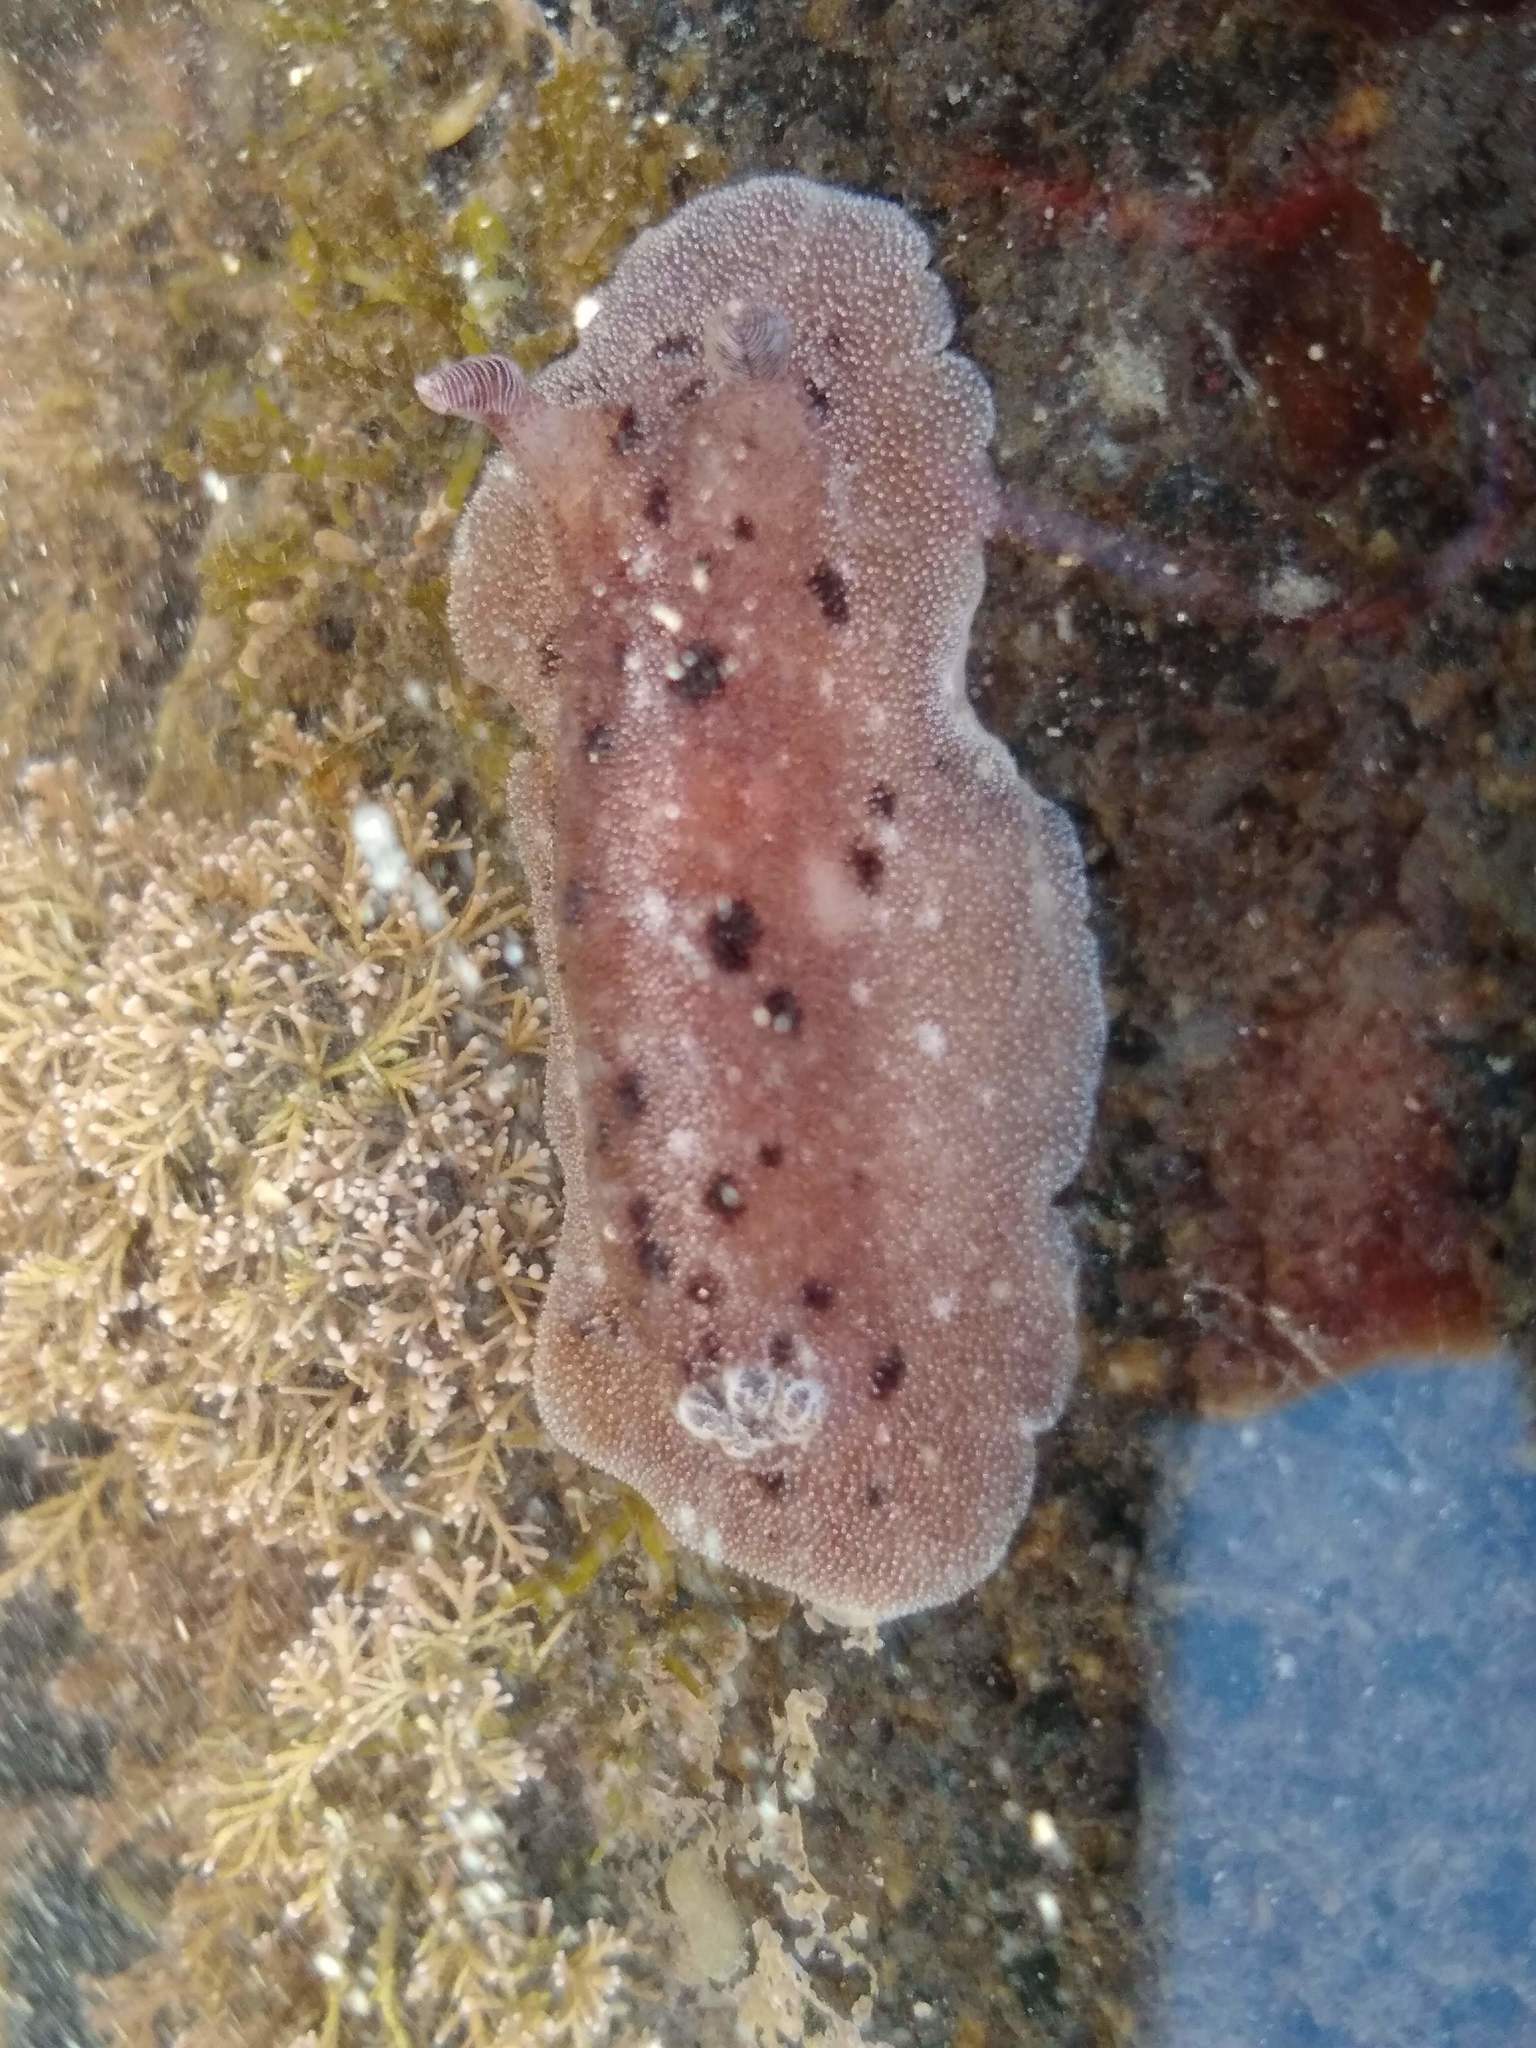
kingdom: Animalia
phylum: Mollusca
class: Gastropoda
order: Nudibranchia
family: Discodorididae
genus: Alloiodoris
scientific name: Alloiodoris lanuginata
